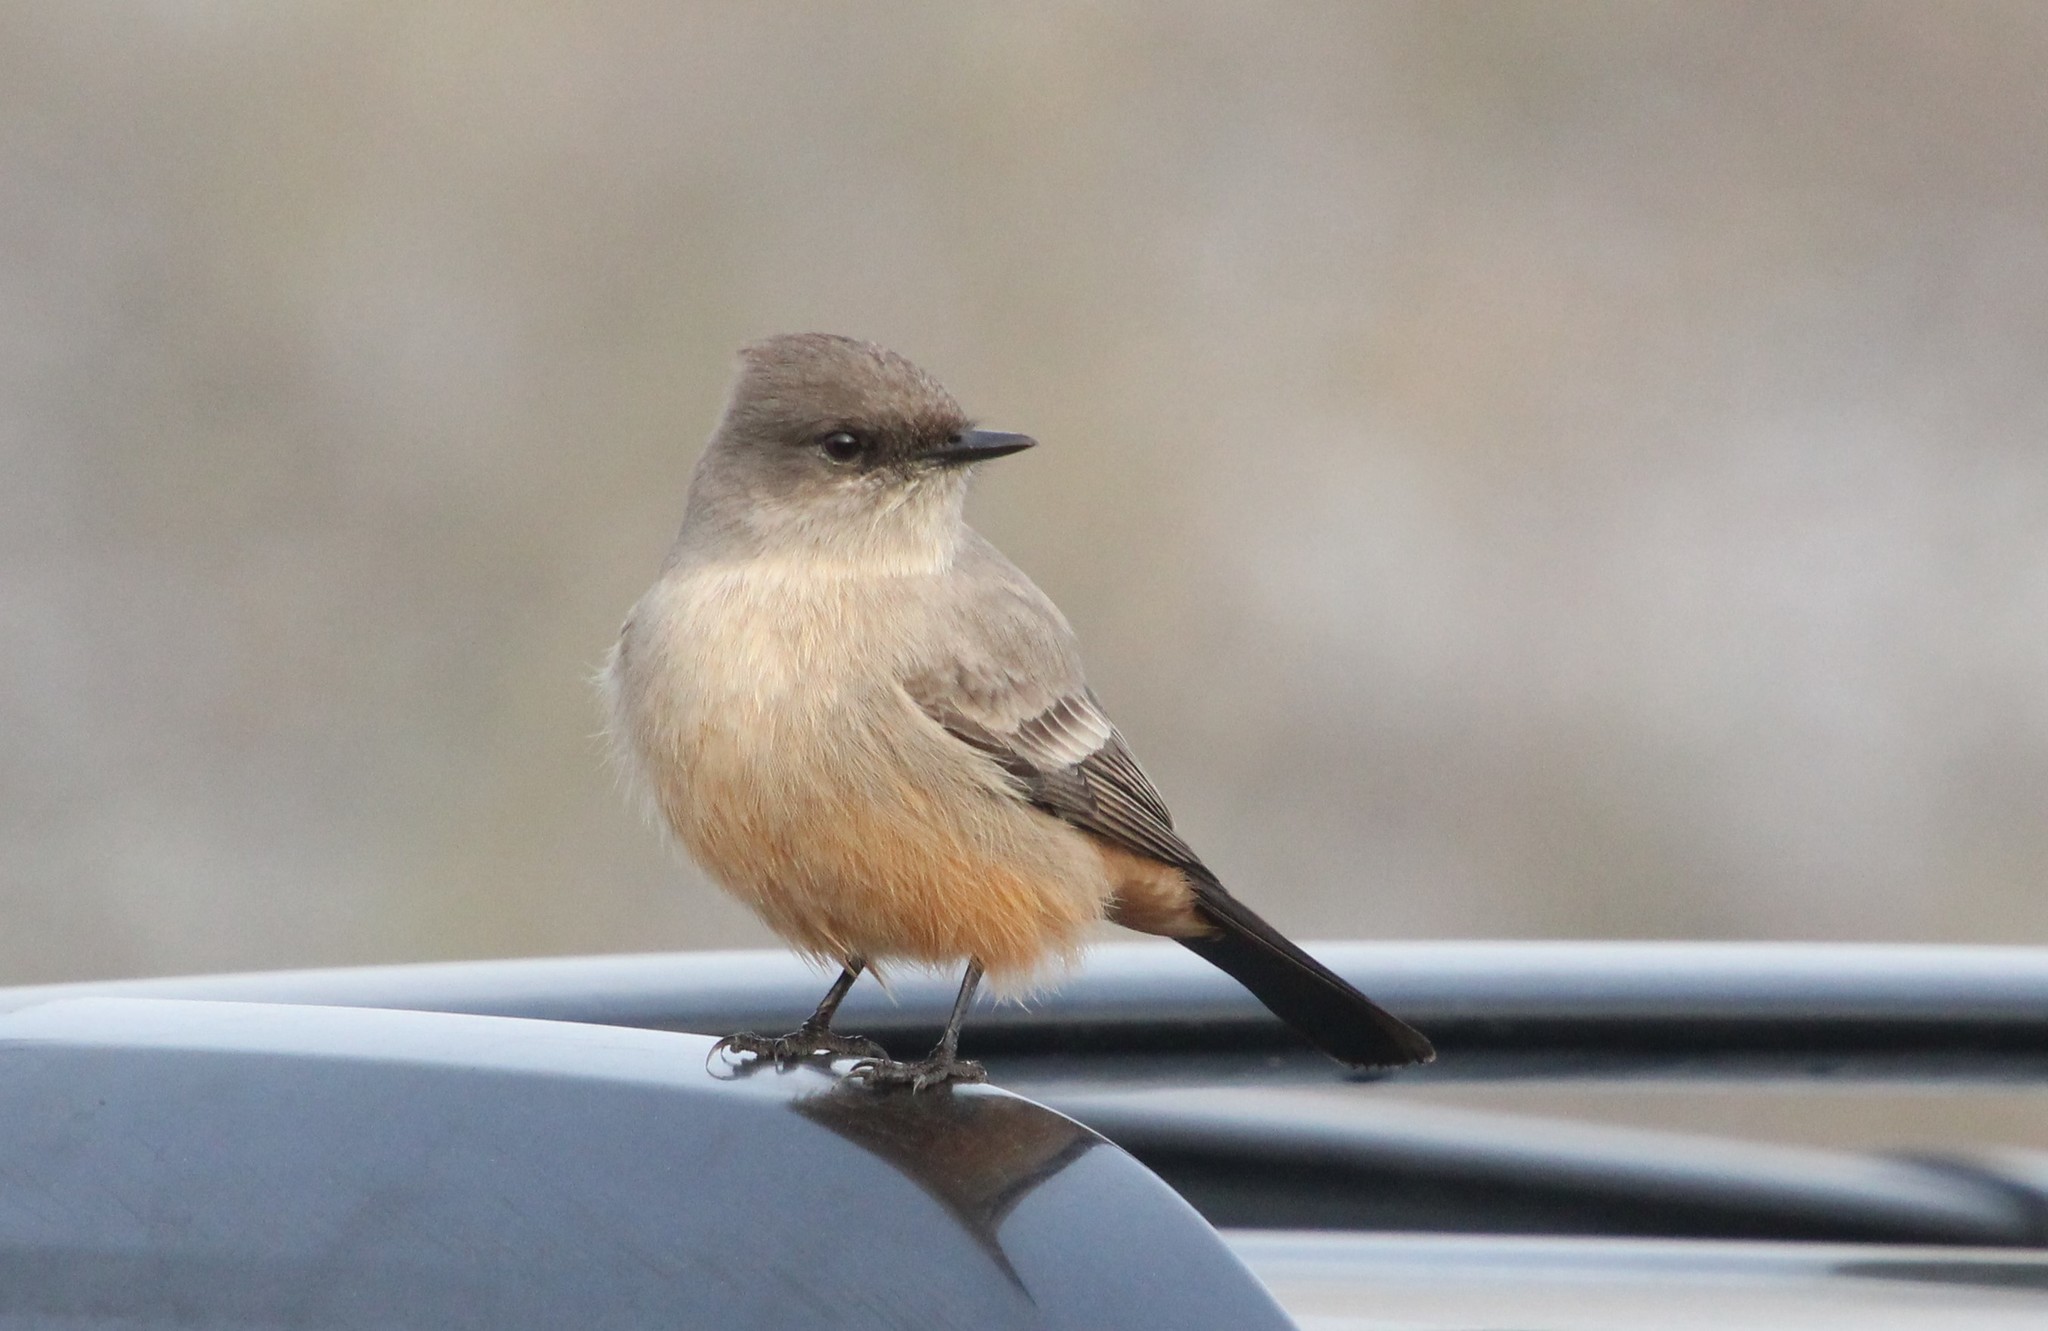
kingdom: Animalia
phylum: Chordata
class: Aves
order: Passeriformes
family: Tyrannidae
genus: Sayornis
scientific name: Sayornis saya
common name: Say's phoebe
